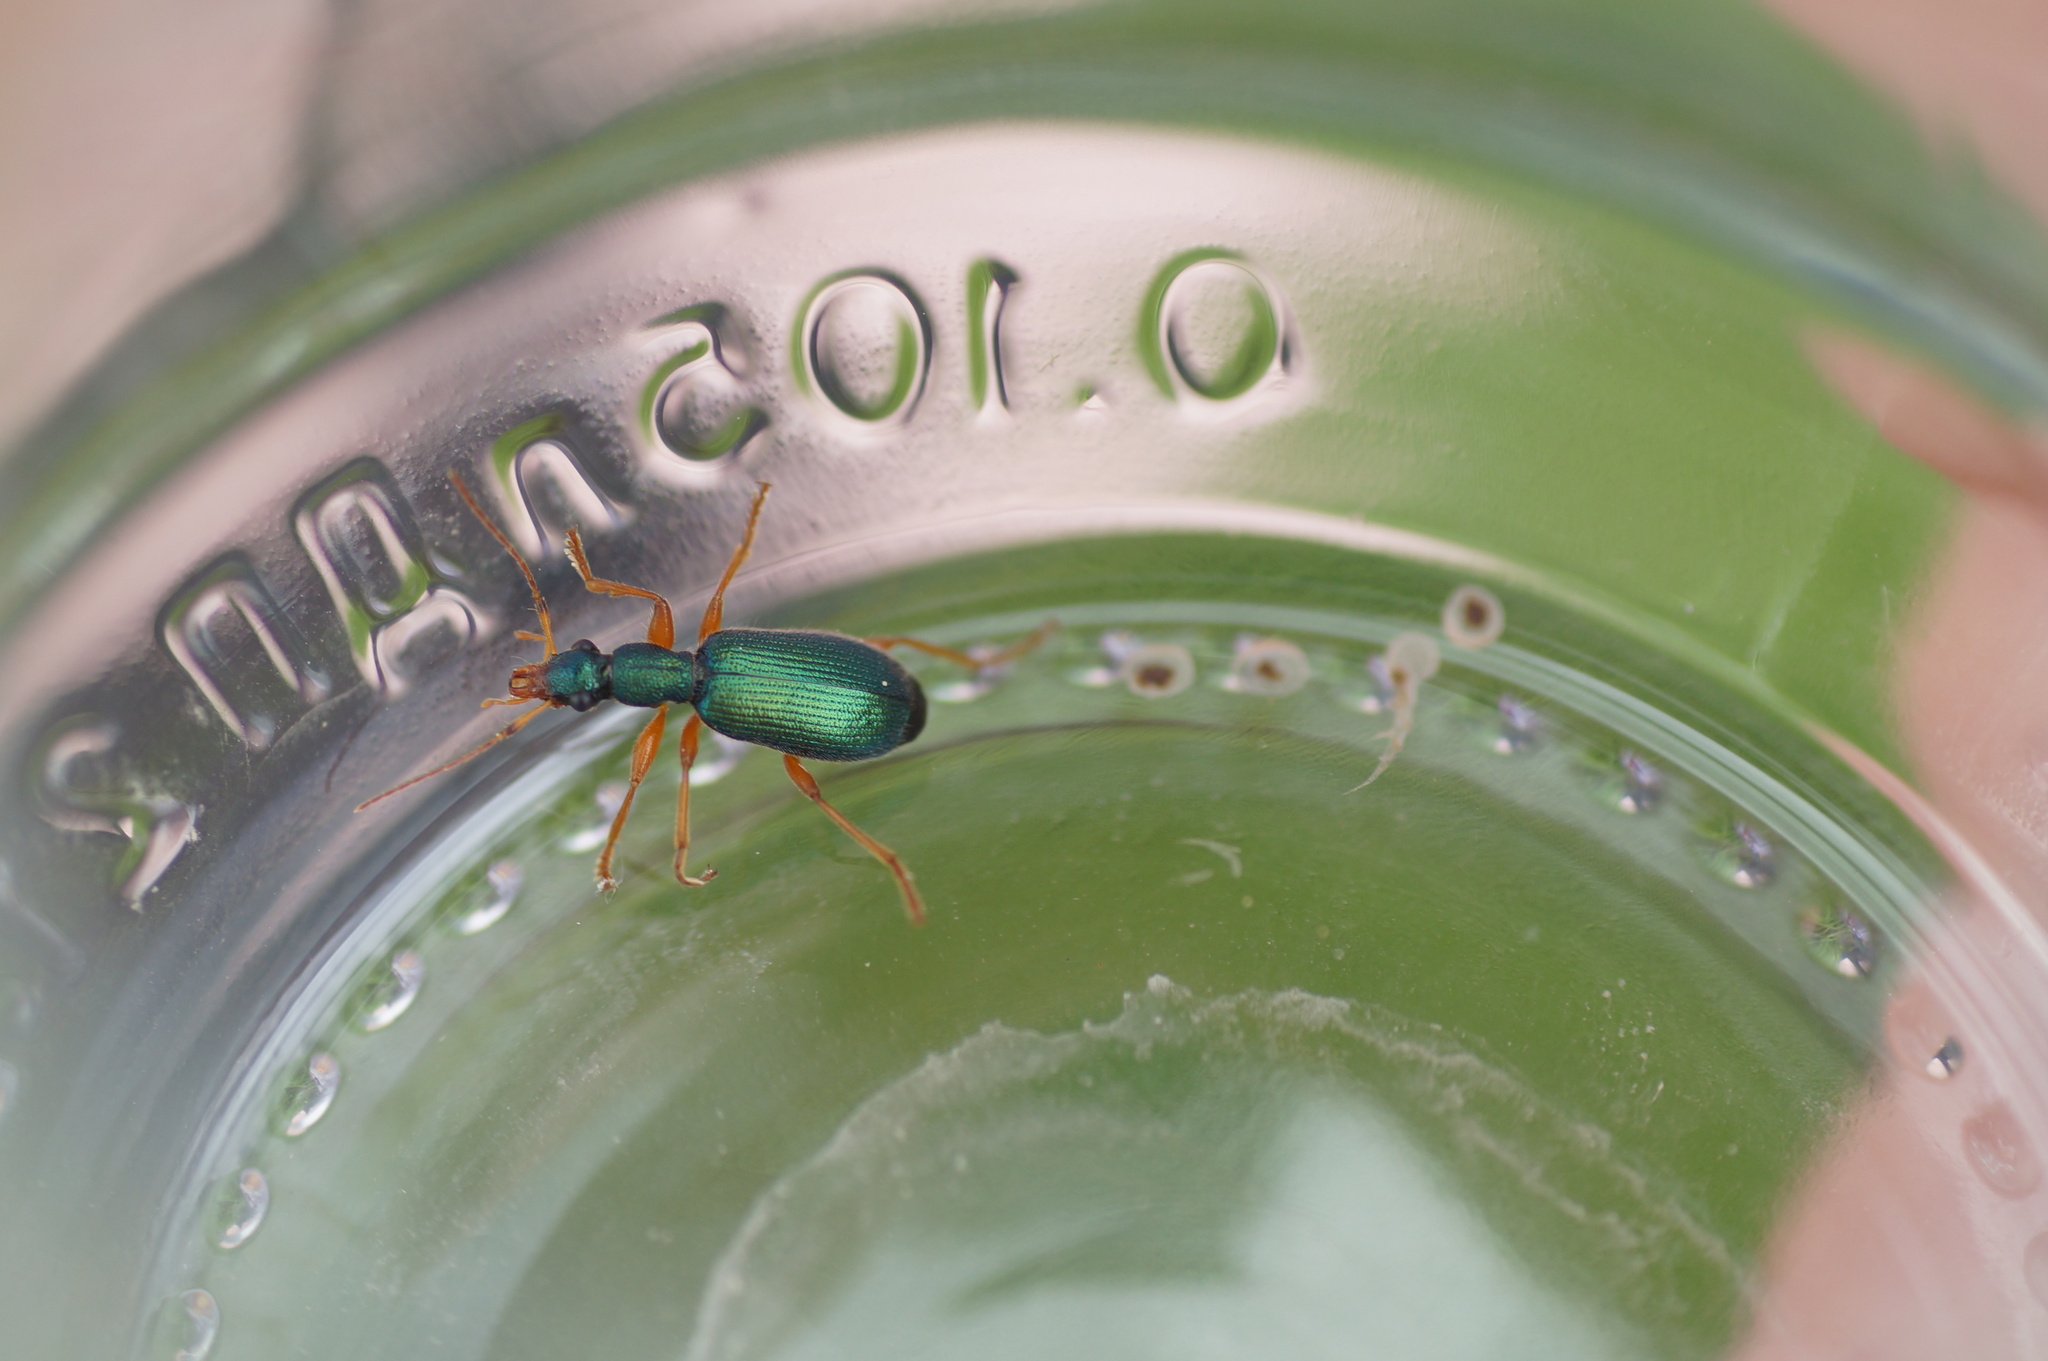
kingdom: Animalia
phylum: Arthropoda
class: Insecta
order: Coleoptera
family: Carabidae
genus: Drypta
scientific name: Drypta dentata
